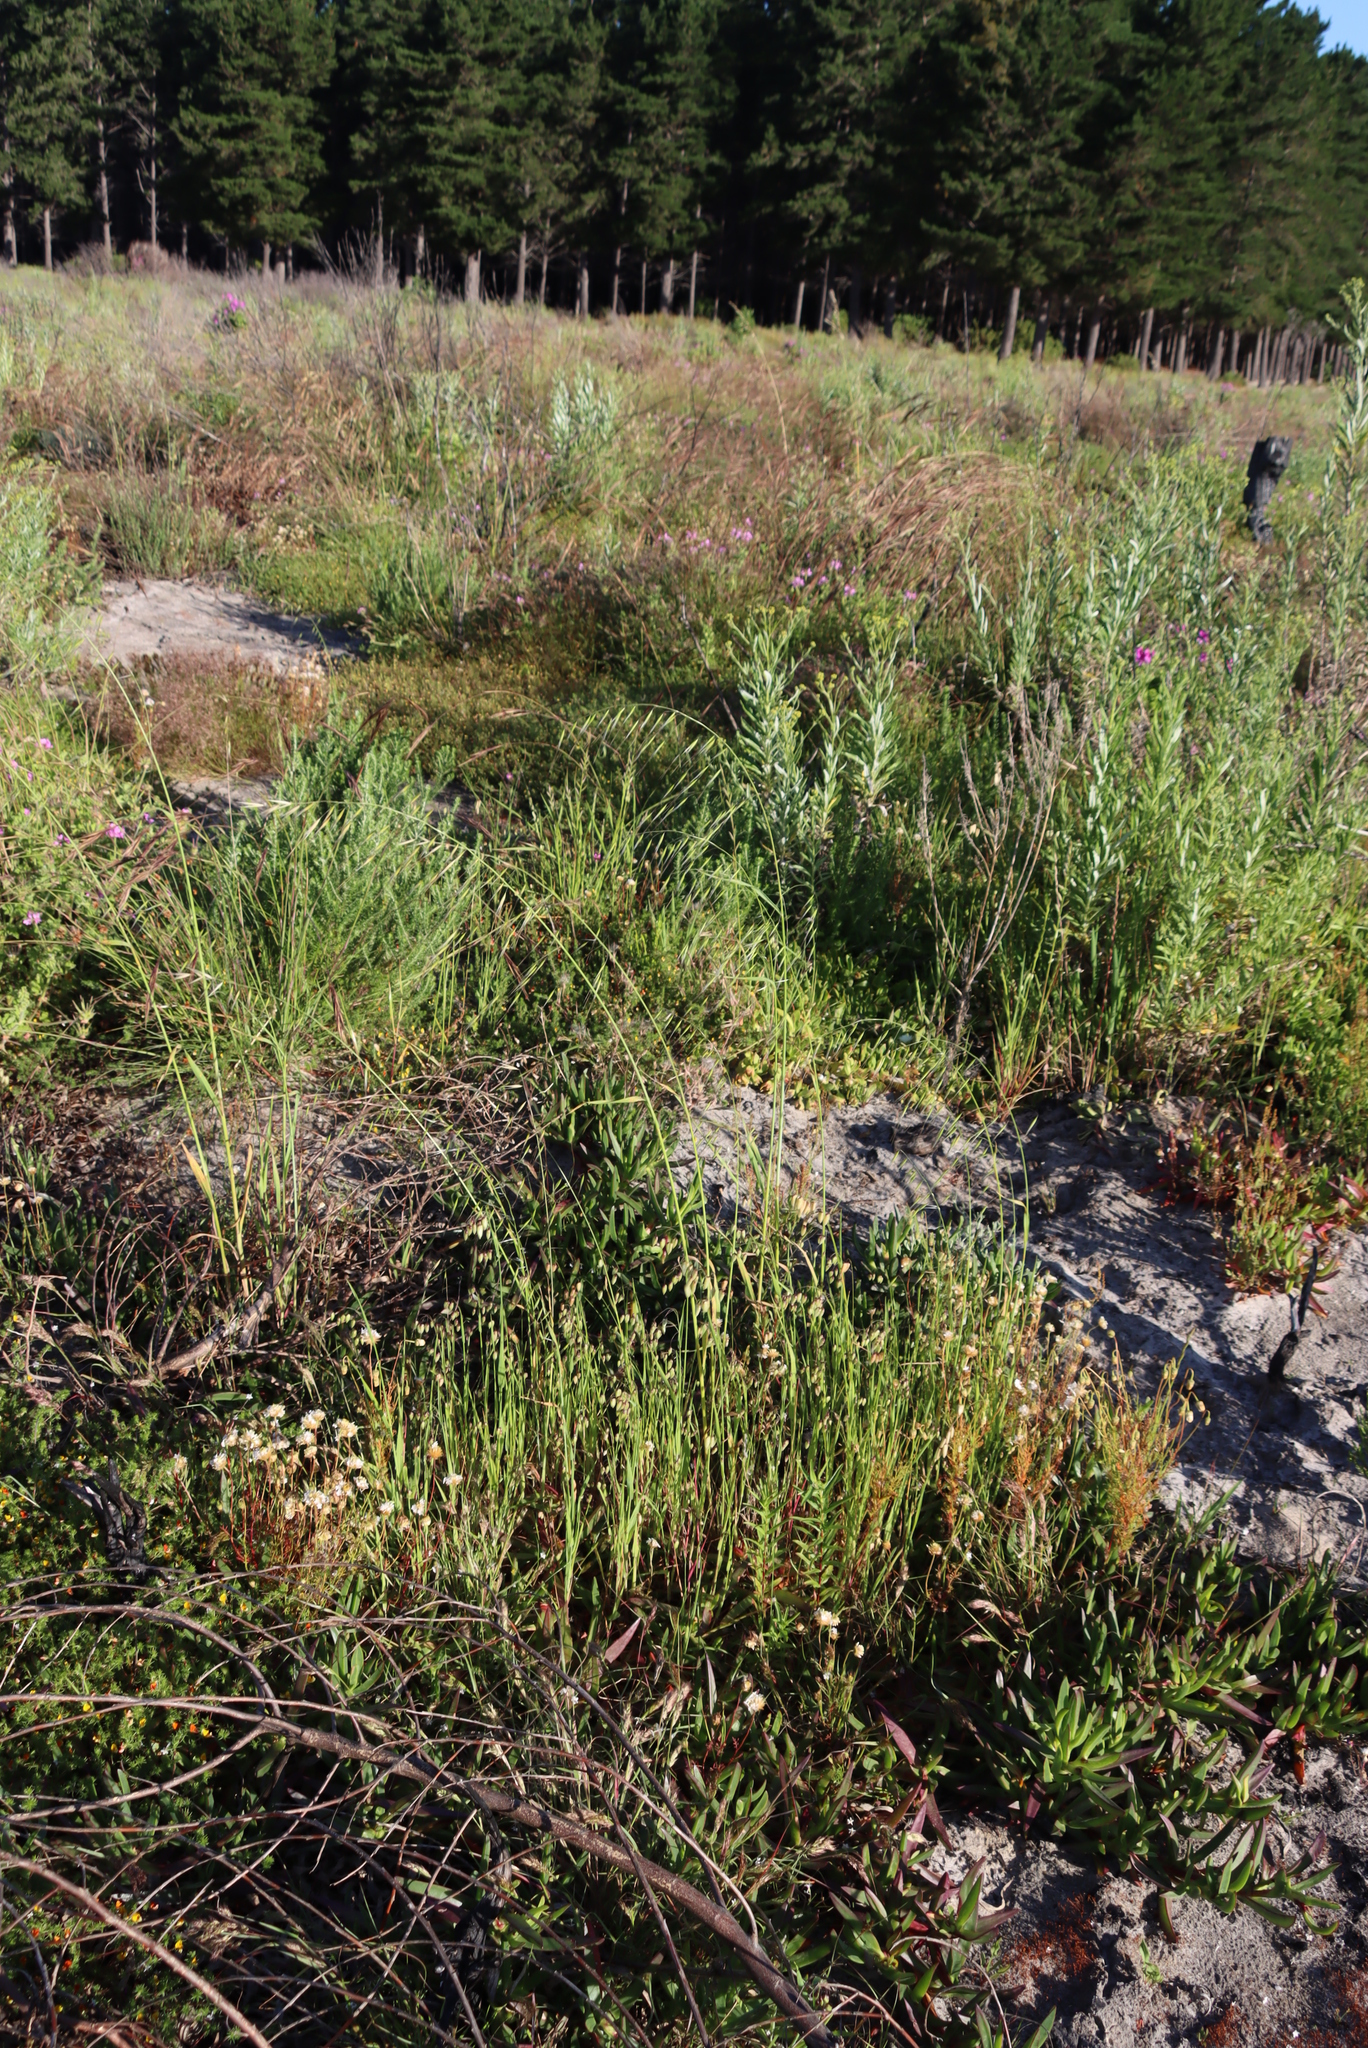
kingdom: Plantae
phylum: Tracheophyta
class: Liliopsida
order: Poales
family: Poaceae
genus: Briza
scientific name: Briza maxima
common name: Big quakinggrass
